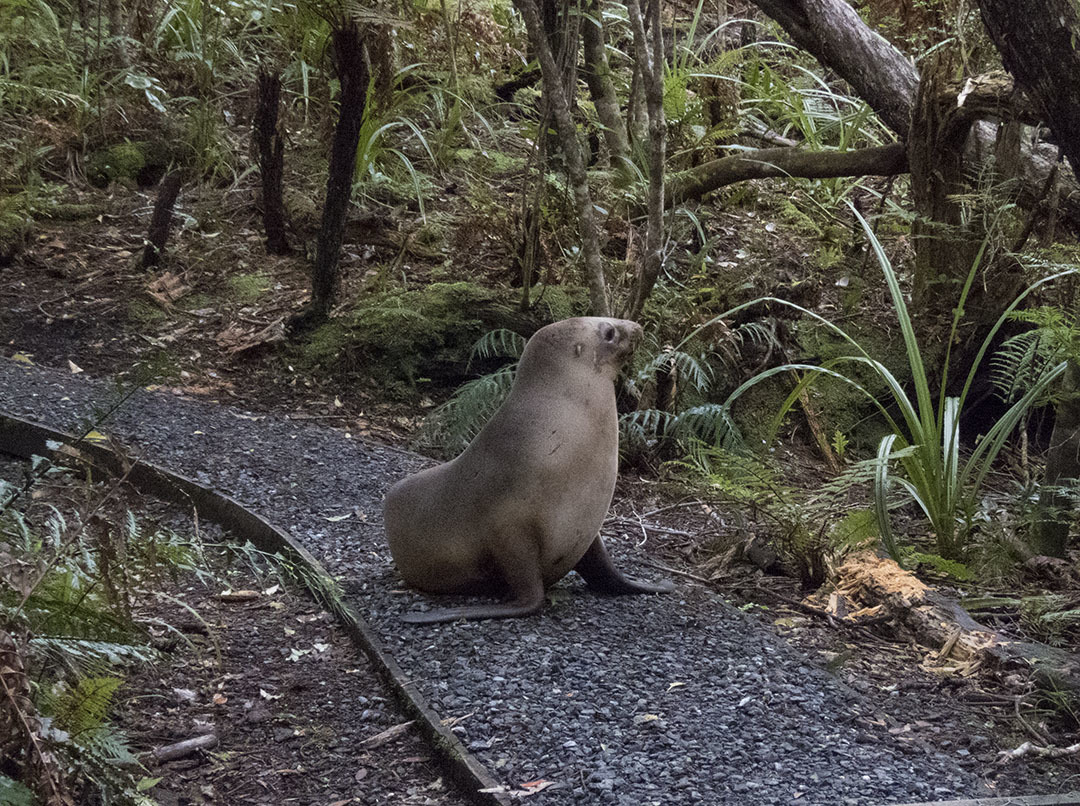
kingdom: Animalia
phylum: Chordata
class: Mammalia
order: Carnivora
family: Otariidae
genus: Phocarctos
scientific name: Phocarctos hookeri
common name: New zealand sea lion
